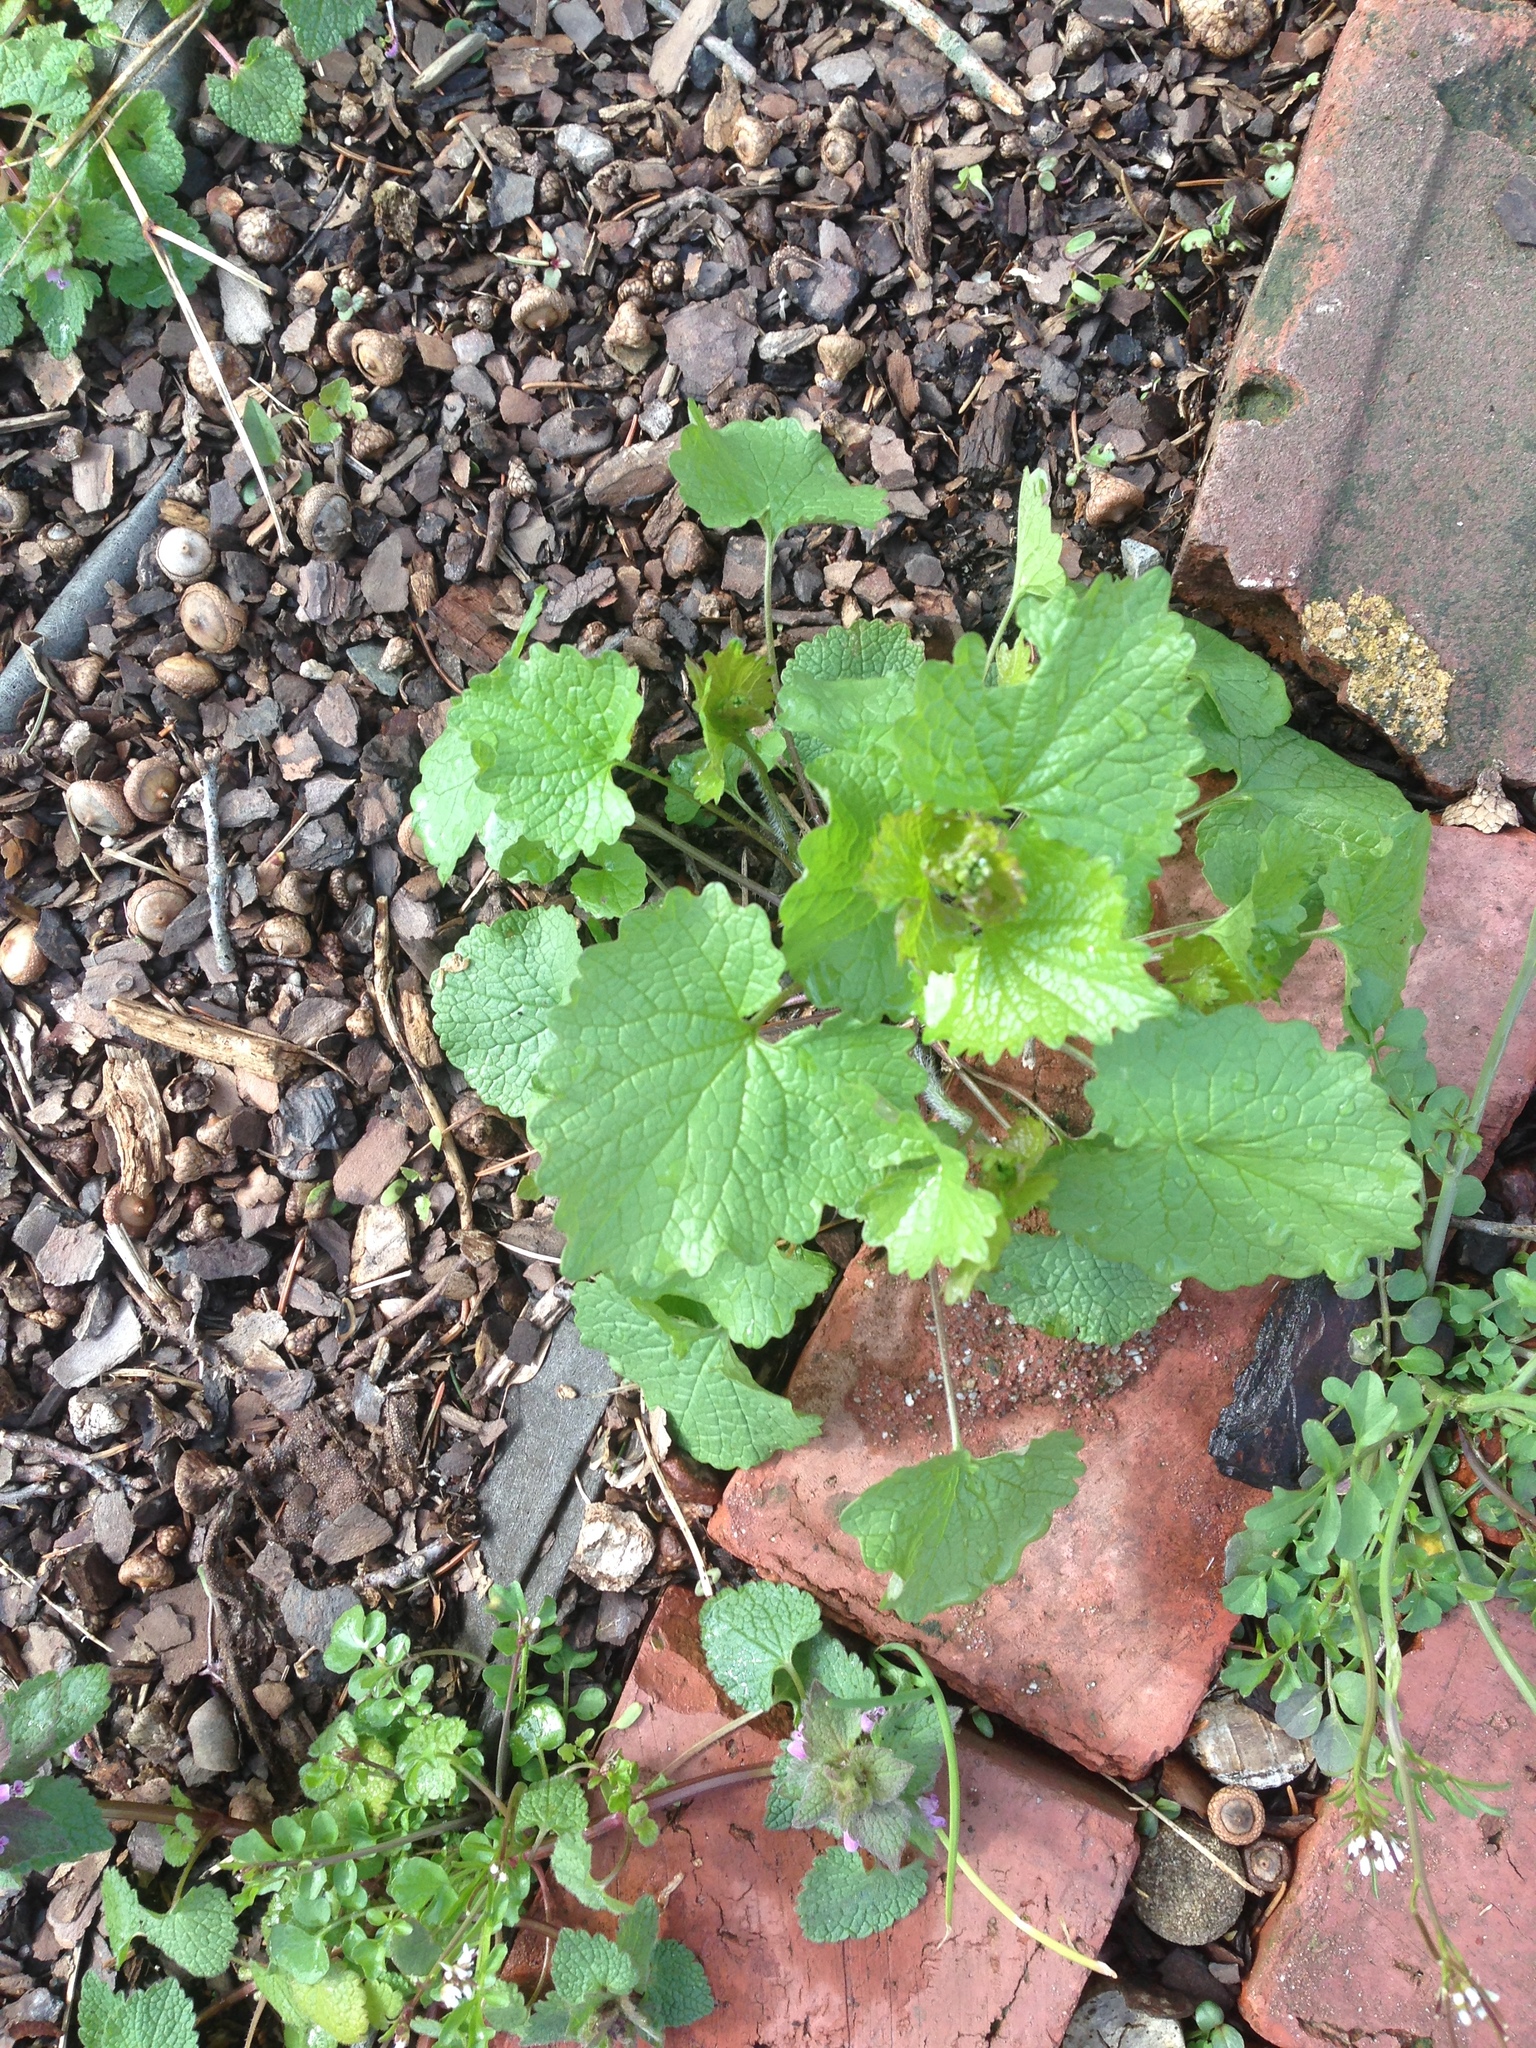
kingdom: Plantae
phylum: Tracheophyta
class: Magnoliopsida
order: Brassicales
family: Brassicaceae
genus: Alliaria
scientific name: Alliaria petiolata
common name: Garlic mustard
